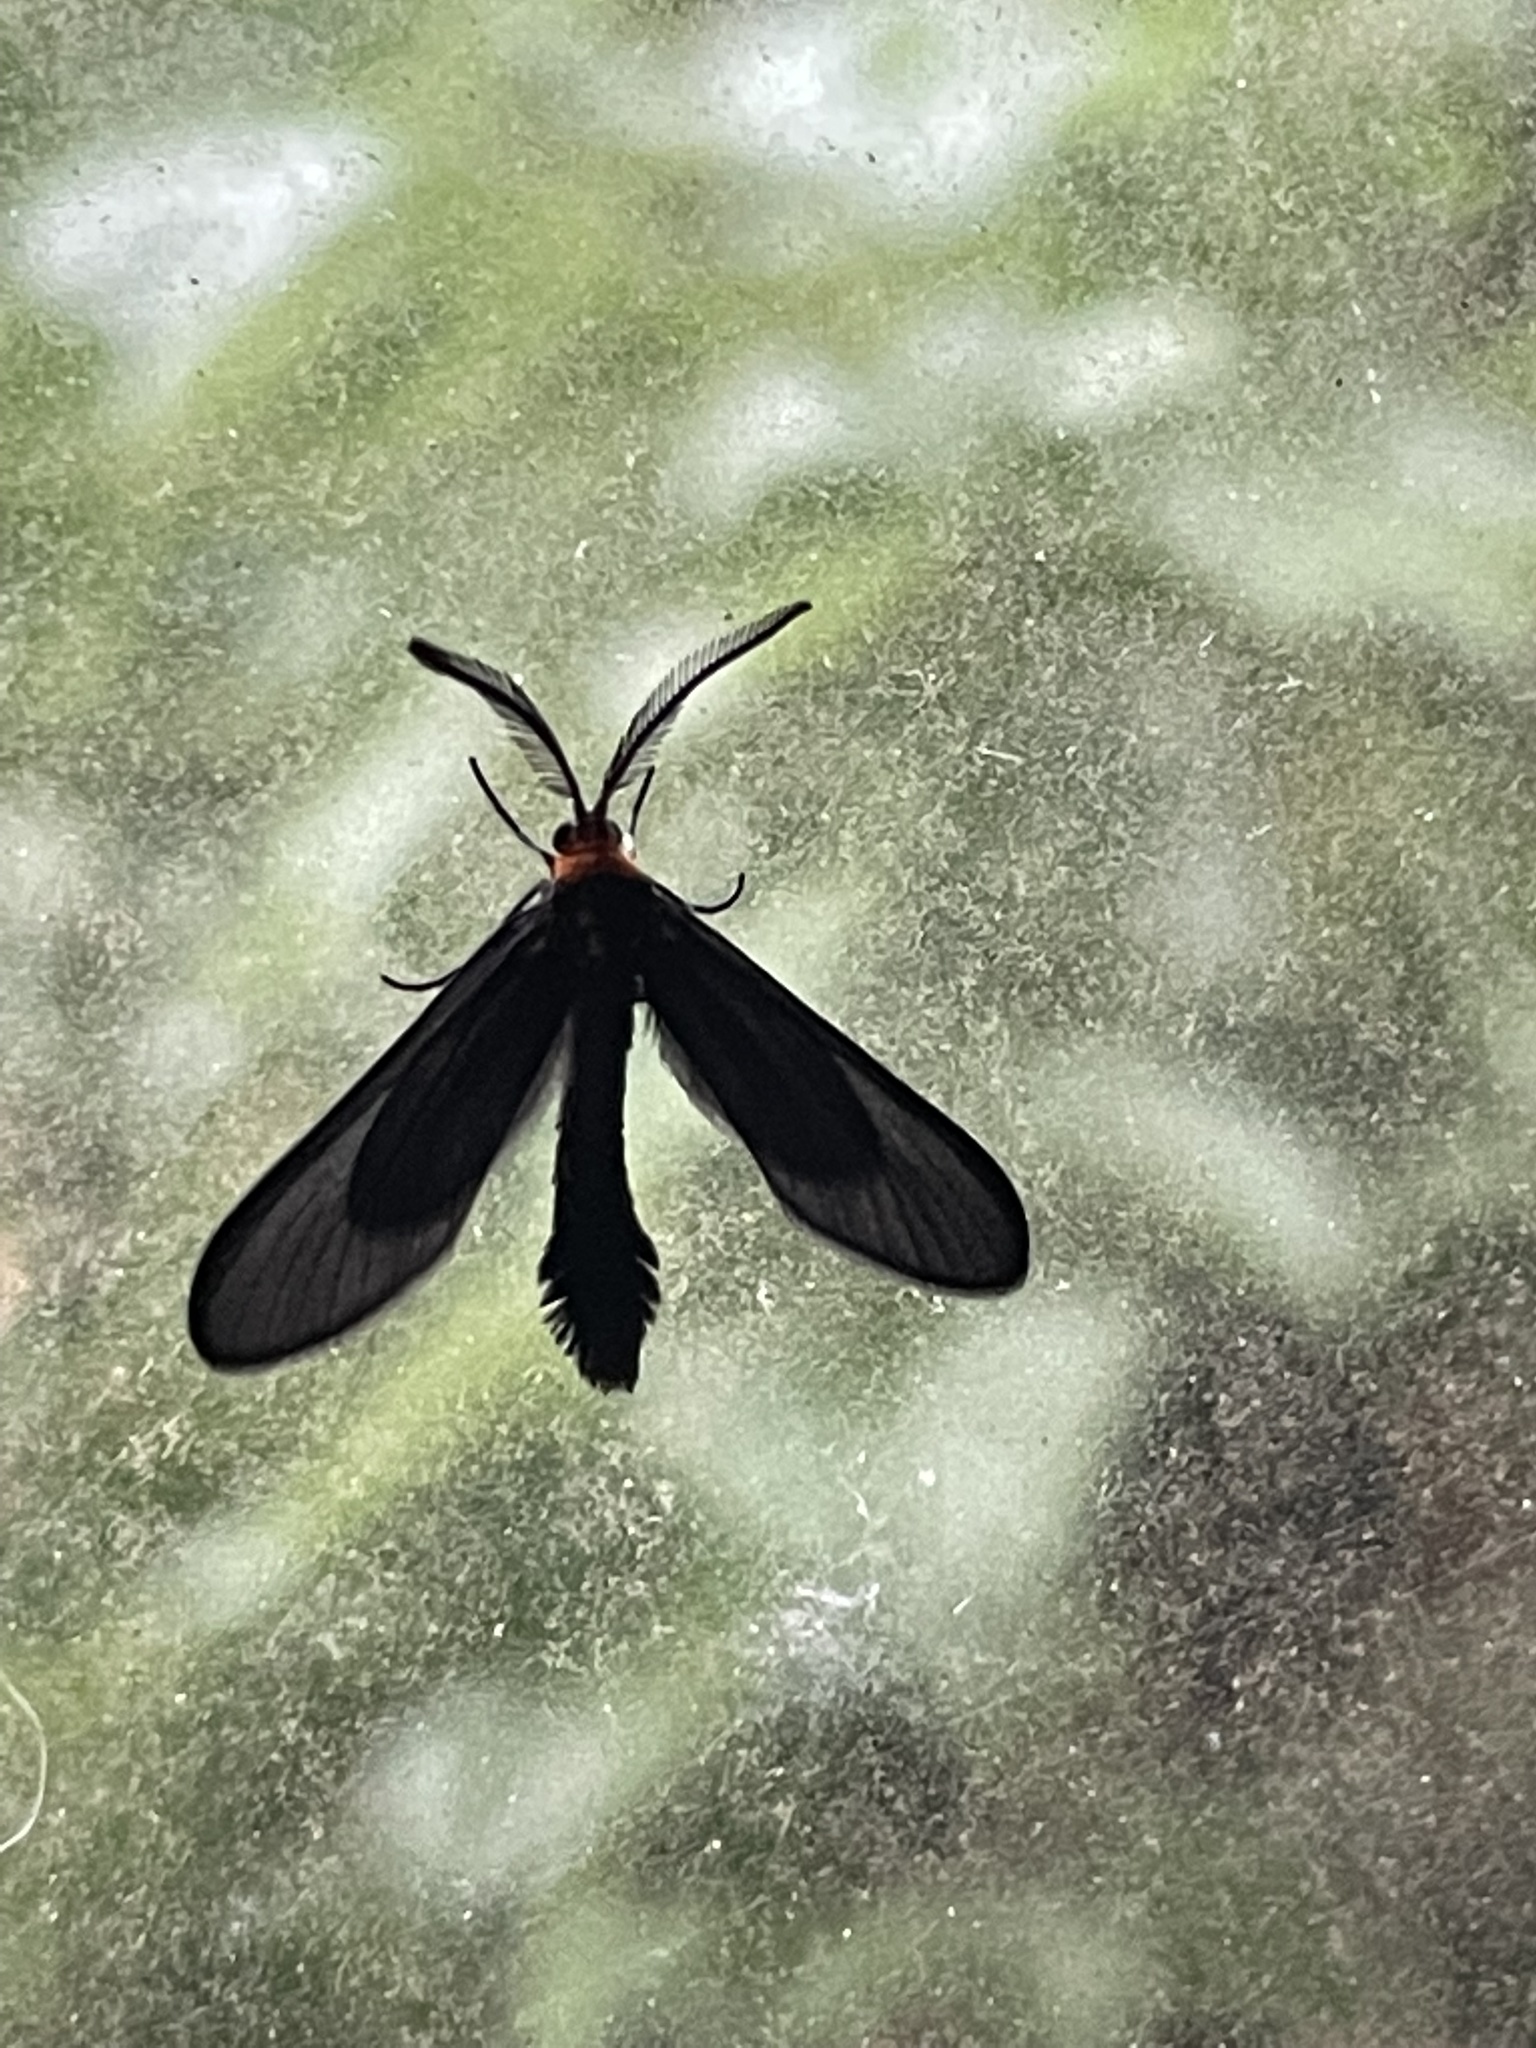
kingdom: Animalia
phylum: Arthropoda
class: Insecta
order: Lepidoptera
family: Zygaenidae
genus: Harrisina
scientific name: Harrisina americana
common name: Grapeleaf skeletonizer moth
